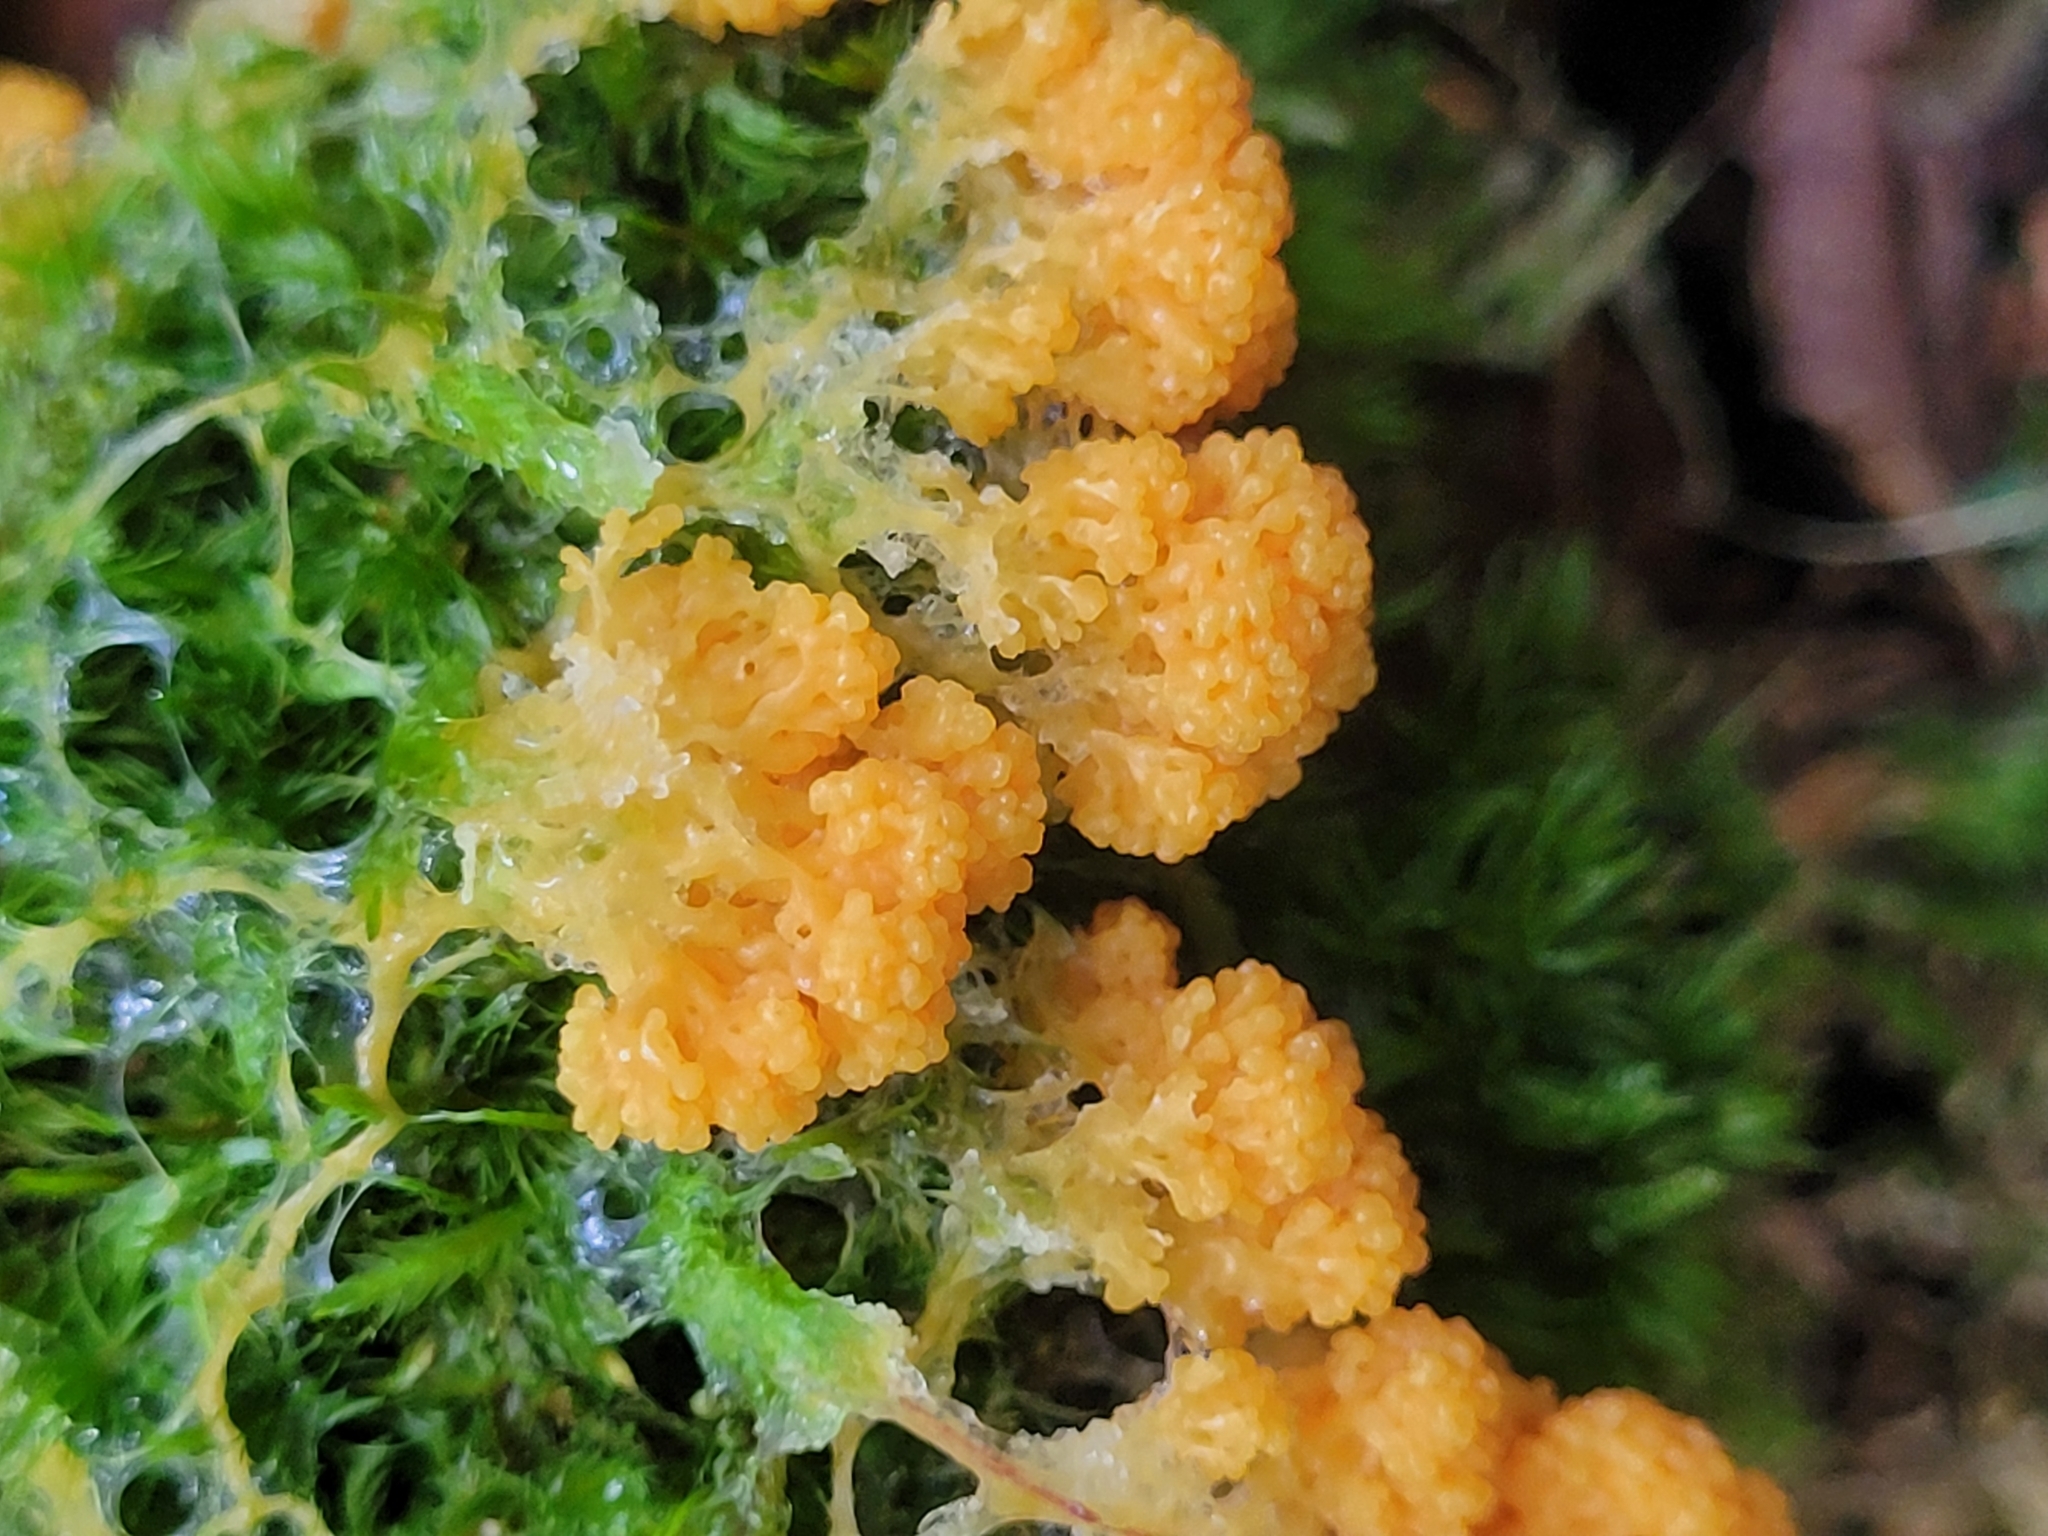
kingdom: Protozoa
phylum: Mycetozoa
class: Myxomycetes
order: Physarales
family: Physaraceae
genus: Fuligo
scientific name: Fuligo muscorum
